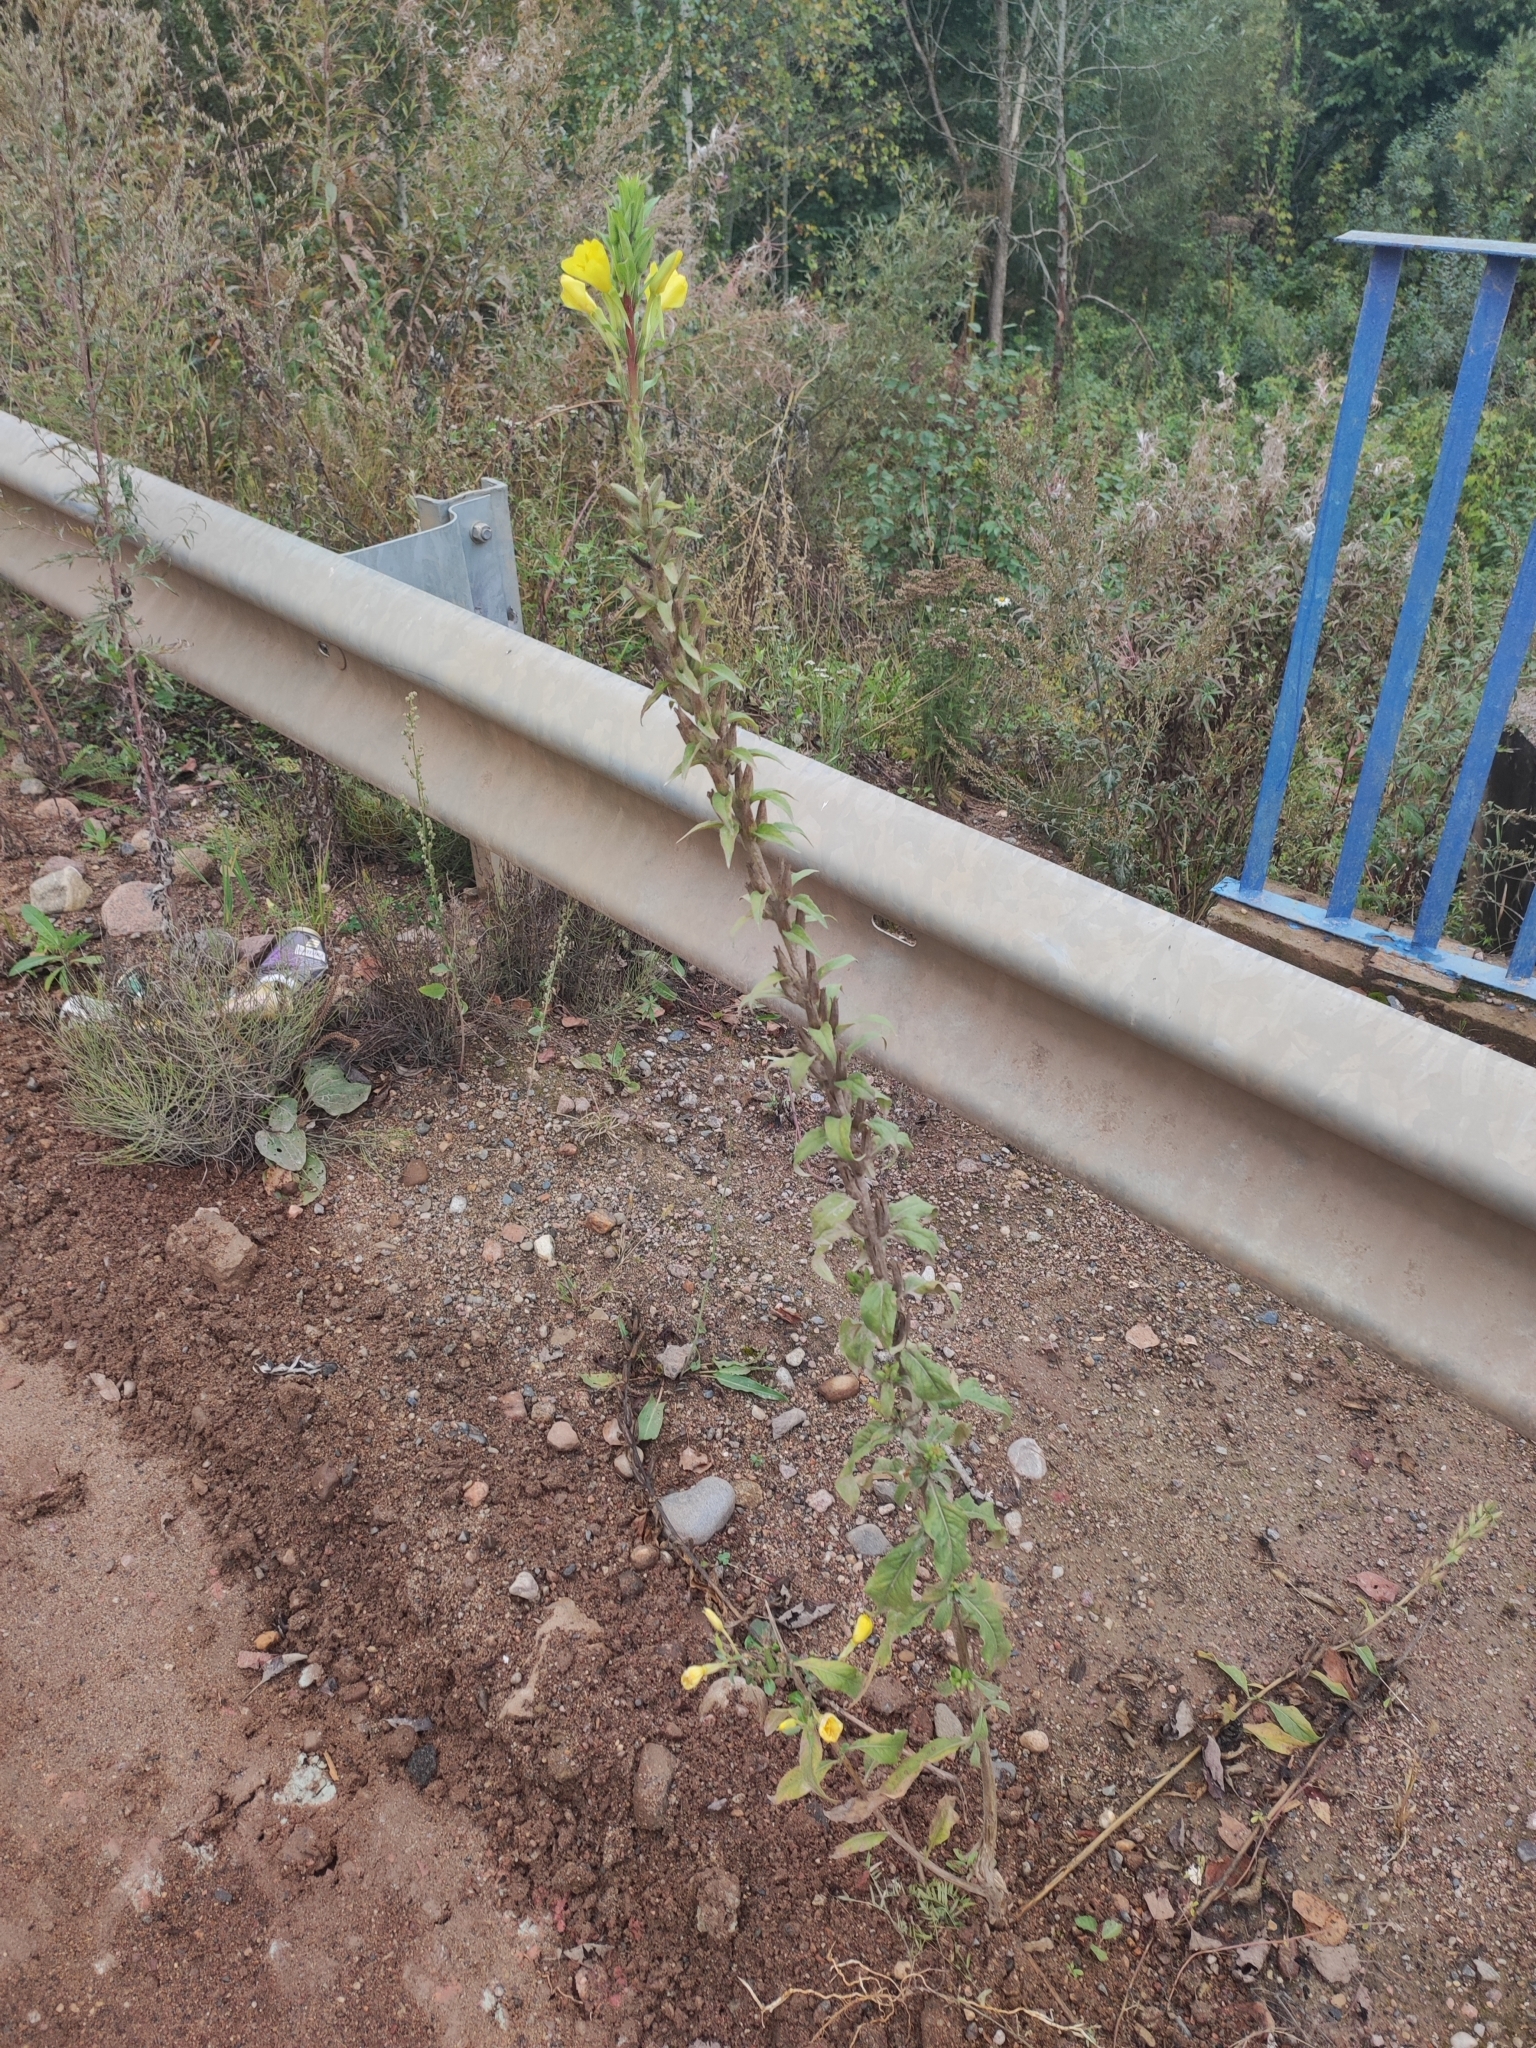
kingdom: Plantae
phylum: Tracheophyta
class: Magnoliopsida
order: Myrtales
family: Onagraceae
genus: Oenothera
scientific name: Oenothera rubricaulis
